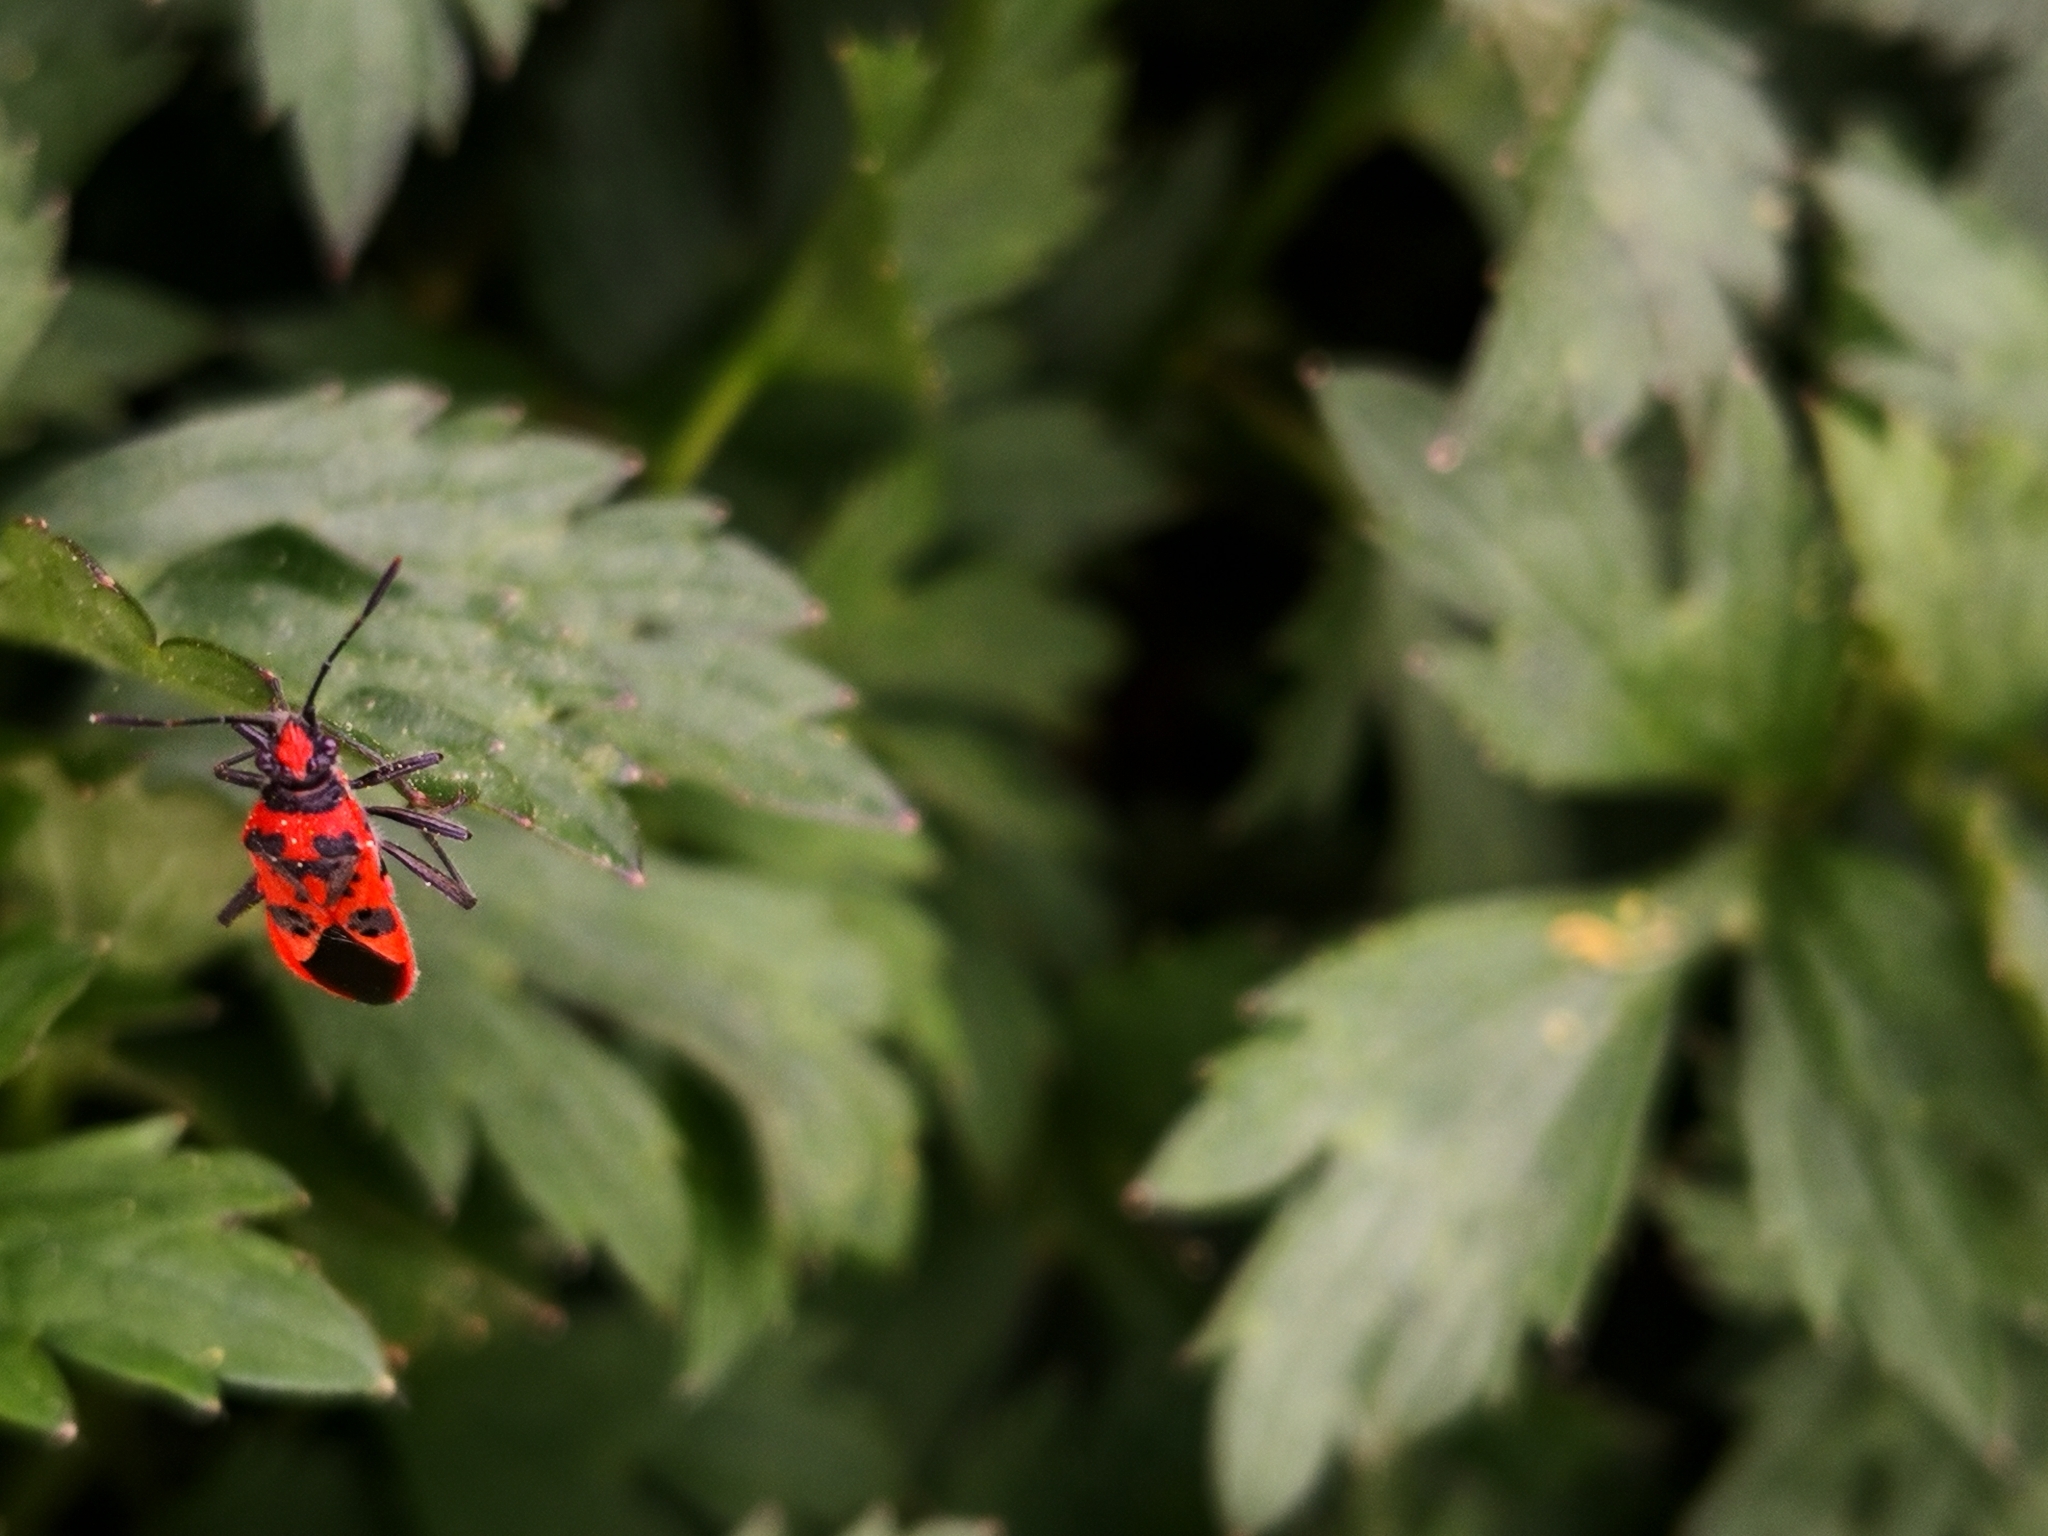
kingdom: Animalia
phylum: Arthropoda
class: Insecta
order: Hemiptera
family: Rhopalidae
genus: Corizus
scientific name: Corizus hyoscyami
